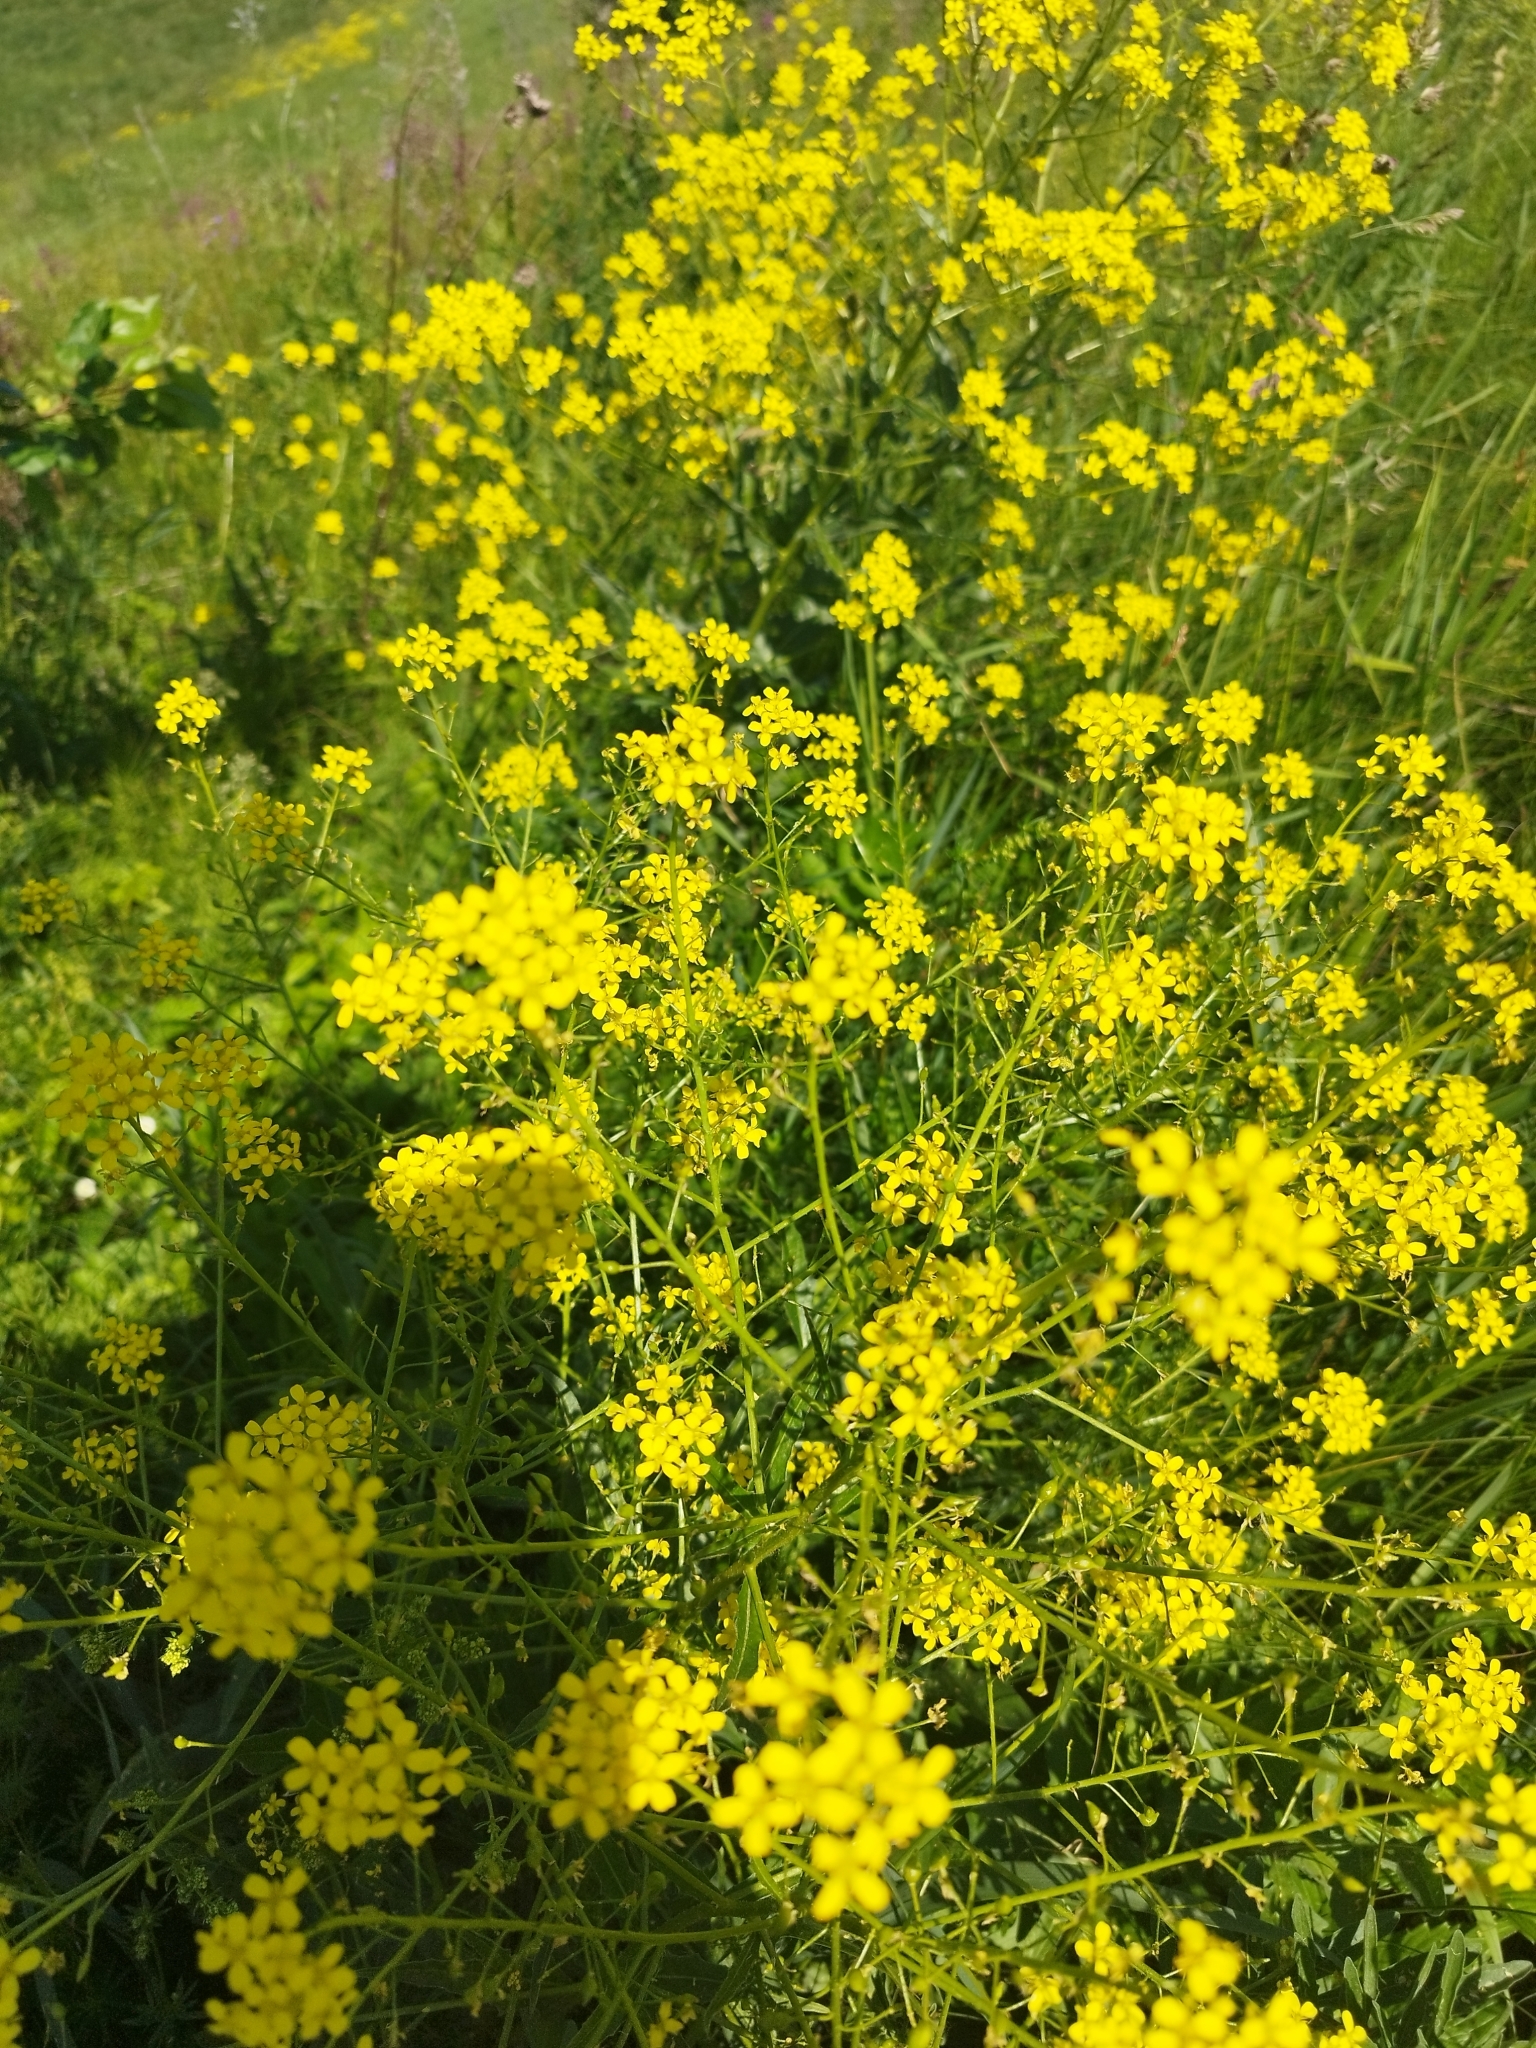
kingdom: Plantae
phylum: Tracheophyta
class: Magnoliopsida
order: Brassicales
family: Brassicaceae
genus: Bunias
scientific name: Bunias orientalis
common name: Warty-cabbage
